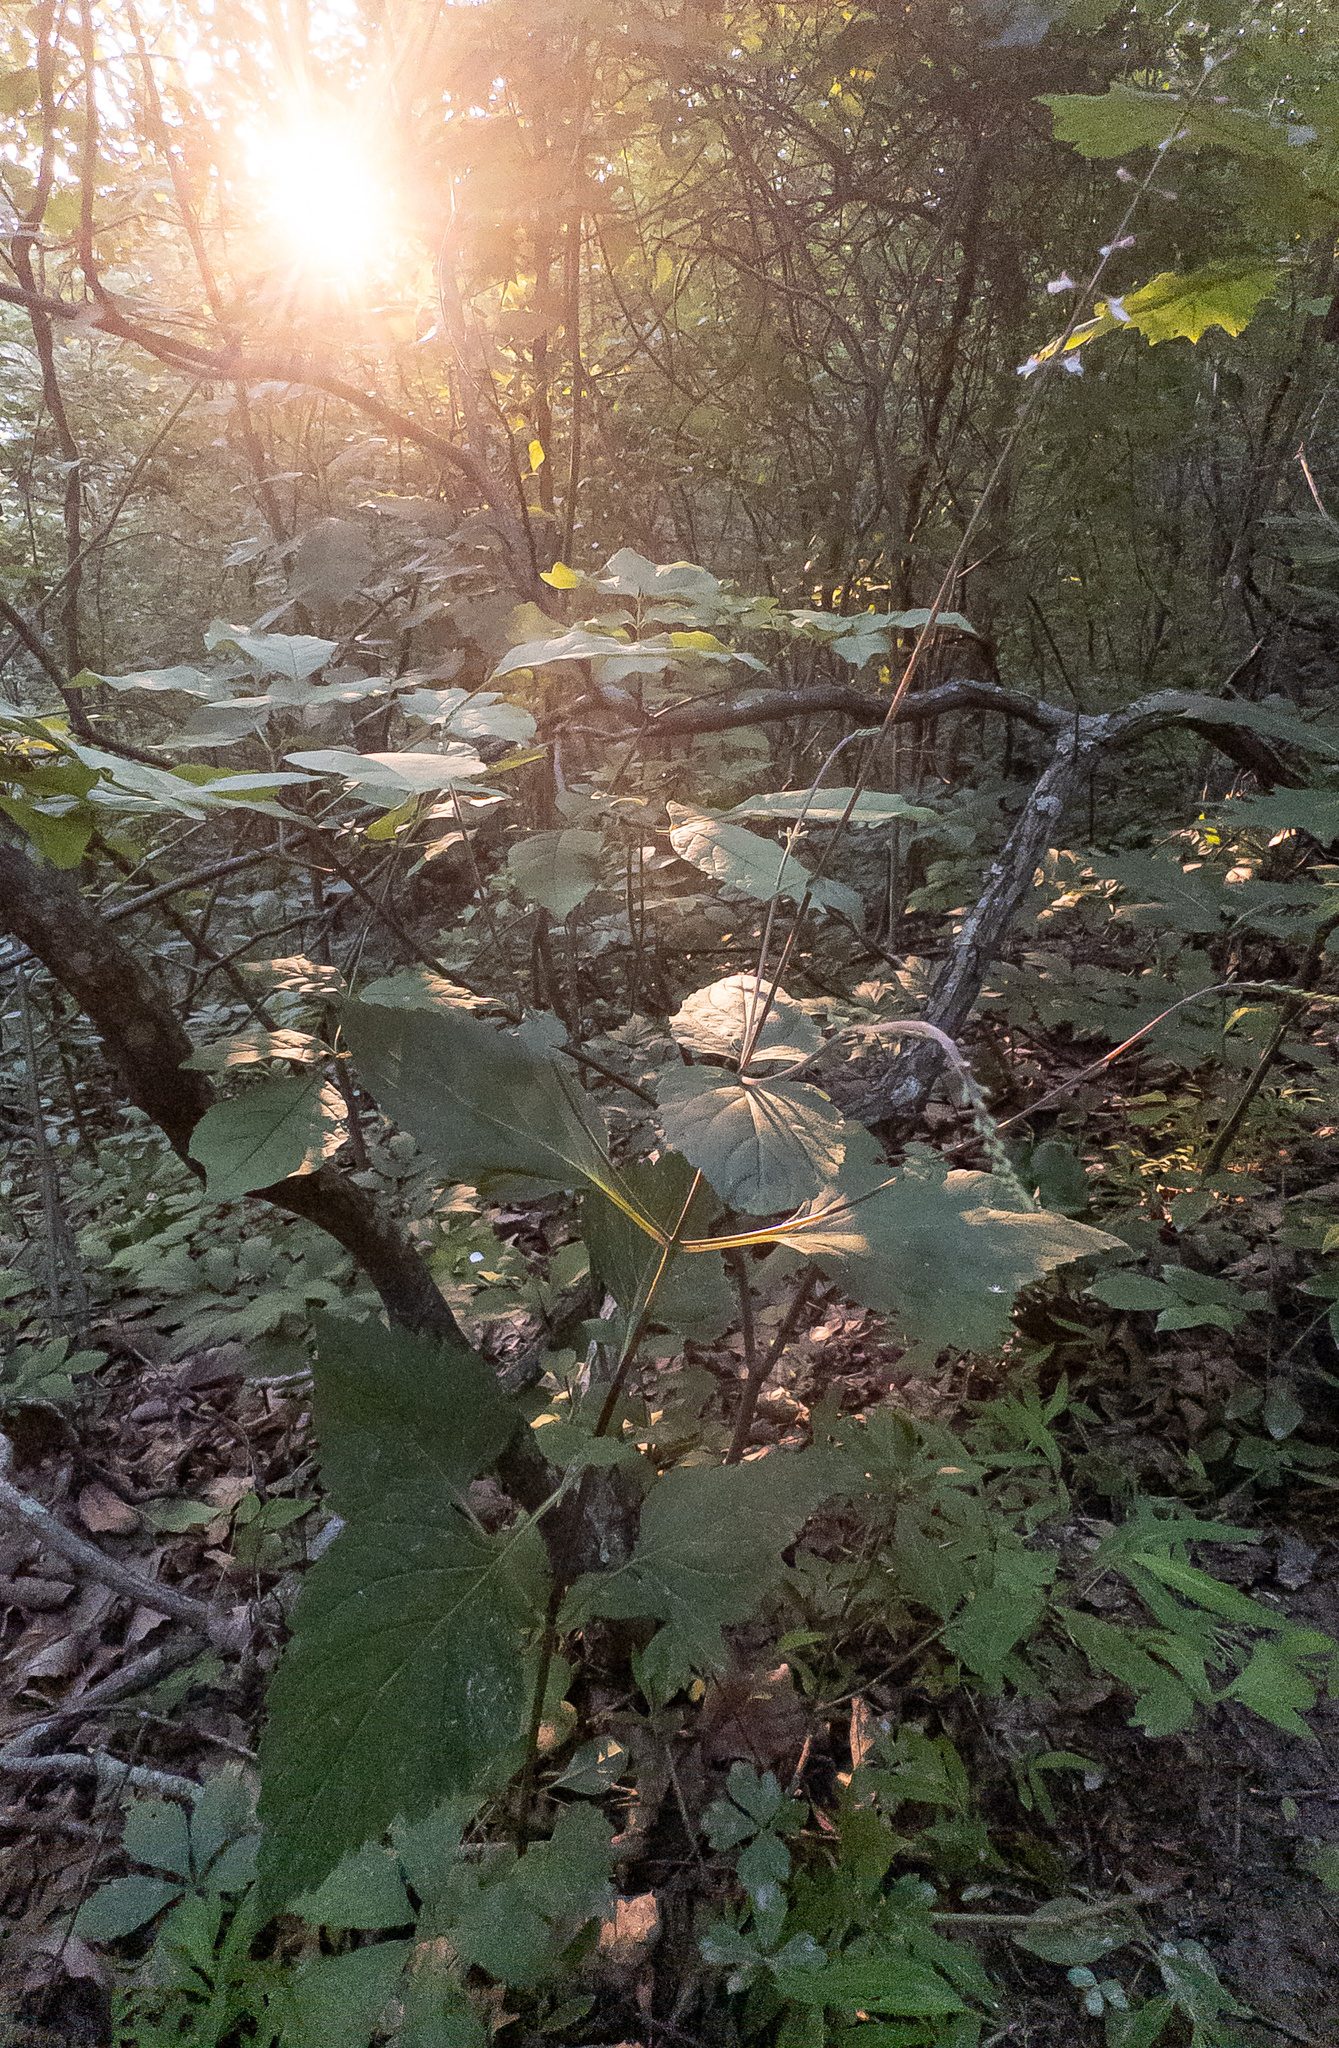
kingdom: Plantae
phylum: Tracheophyta
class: Magnoliopsida
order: Lamiales
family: Phrymaceae
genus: Phryma
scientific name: Phryma leptostachya
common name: American lopseed
